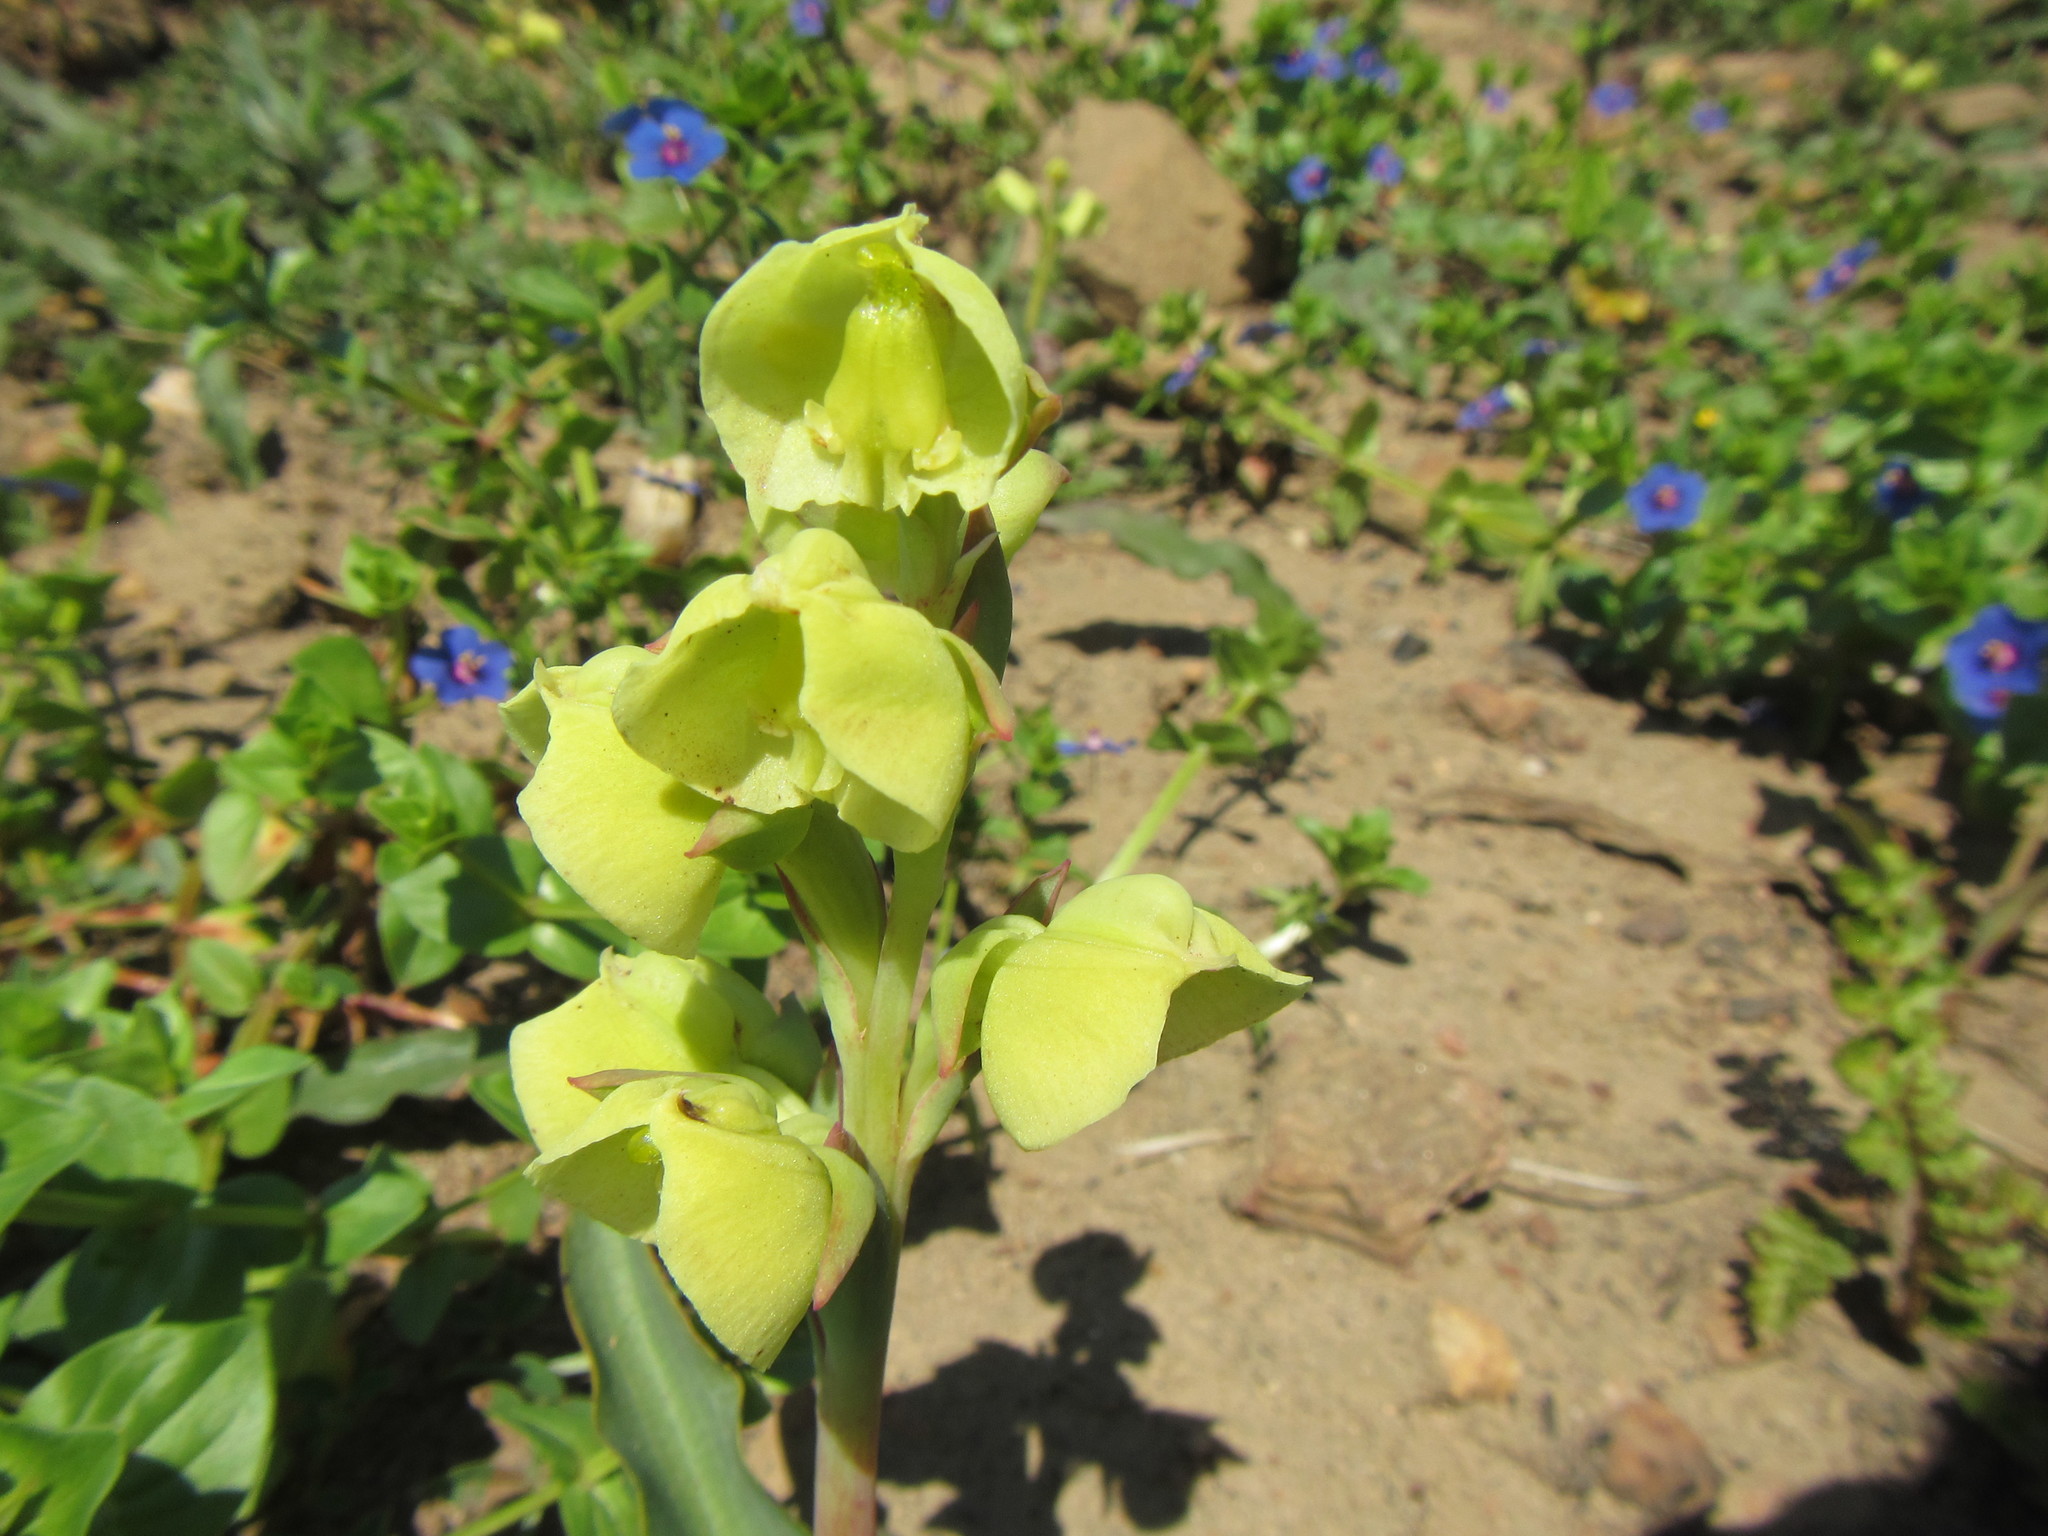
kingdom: Plantae
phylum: Tracheophyta
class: Liliopsida
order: Asparagales
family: Orchidaceae
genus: Pterygodium
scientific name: Pterygodium catholicum
